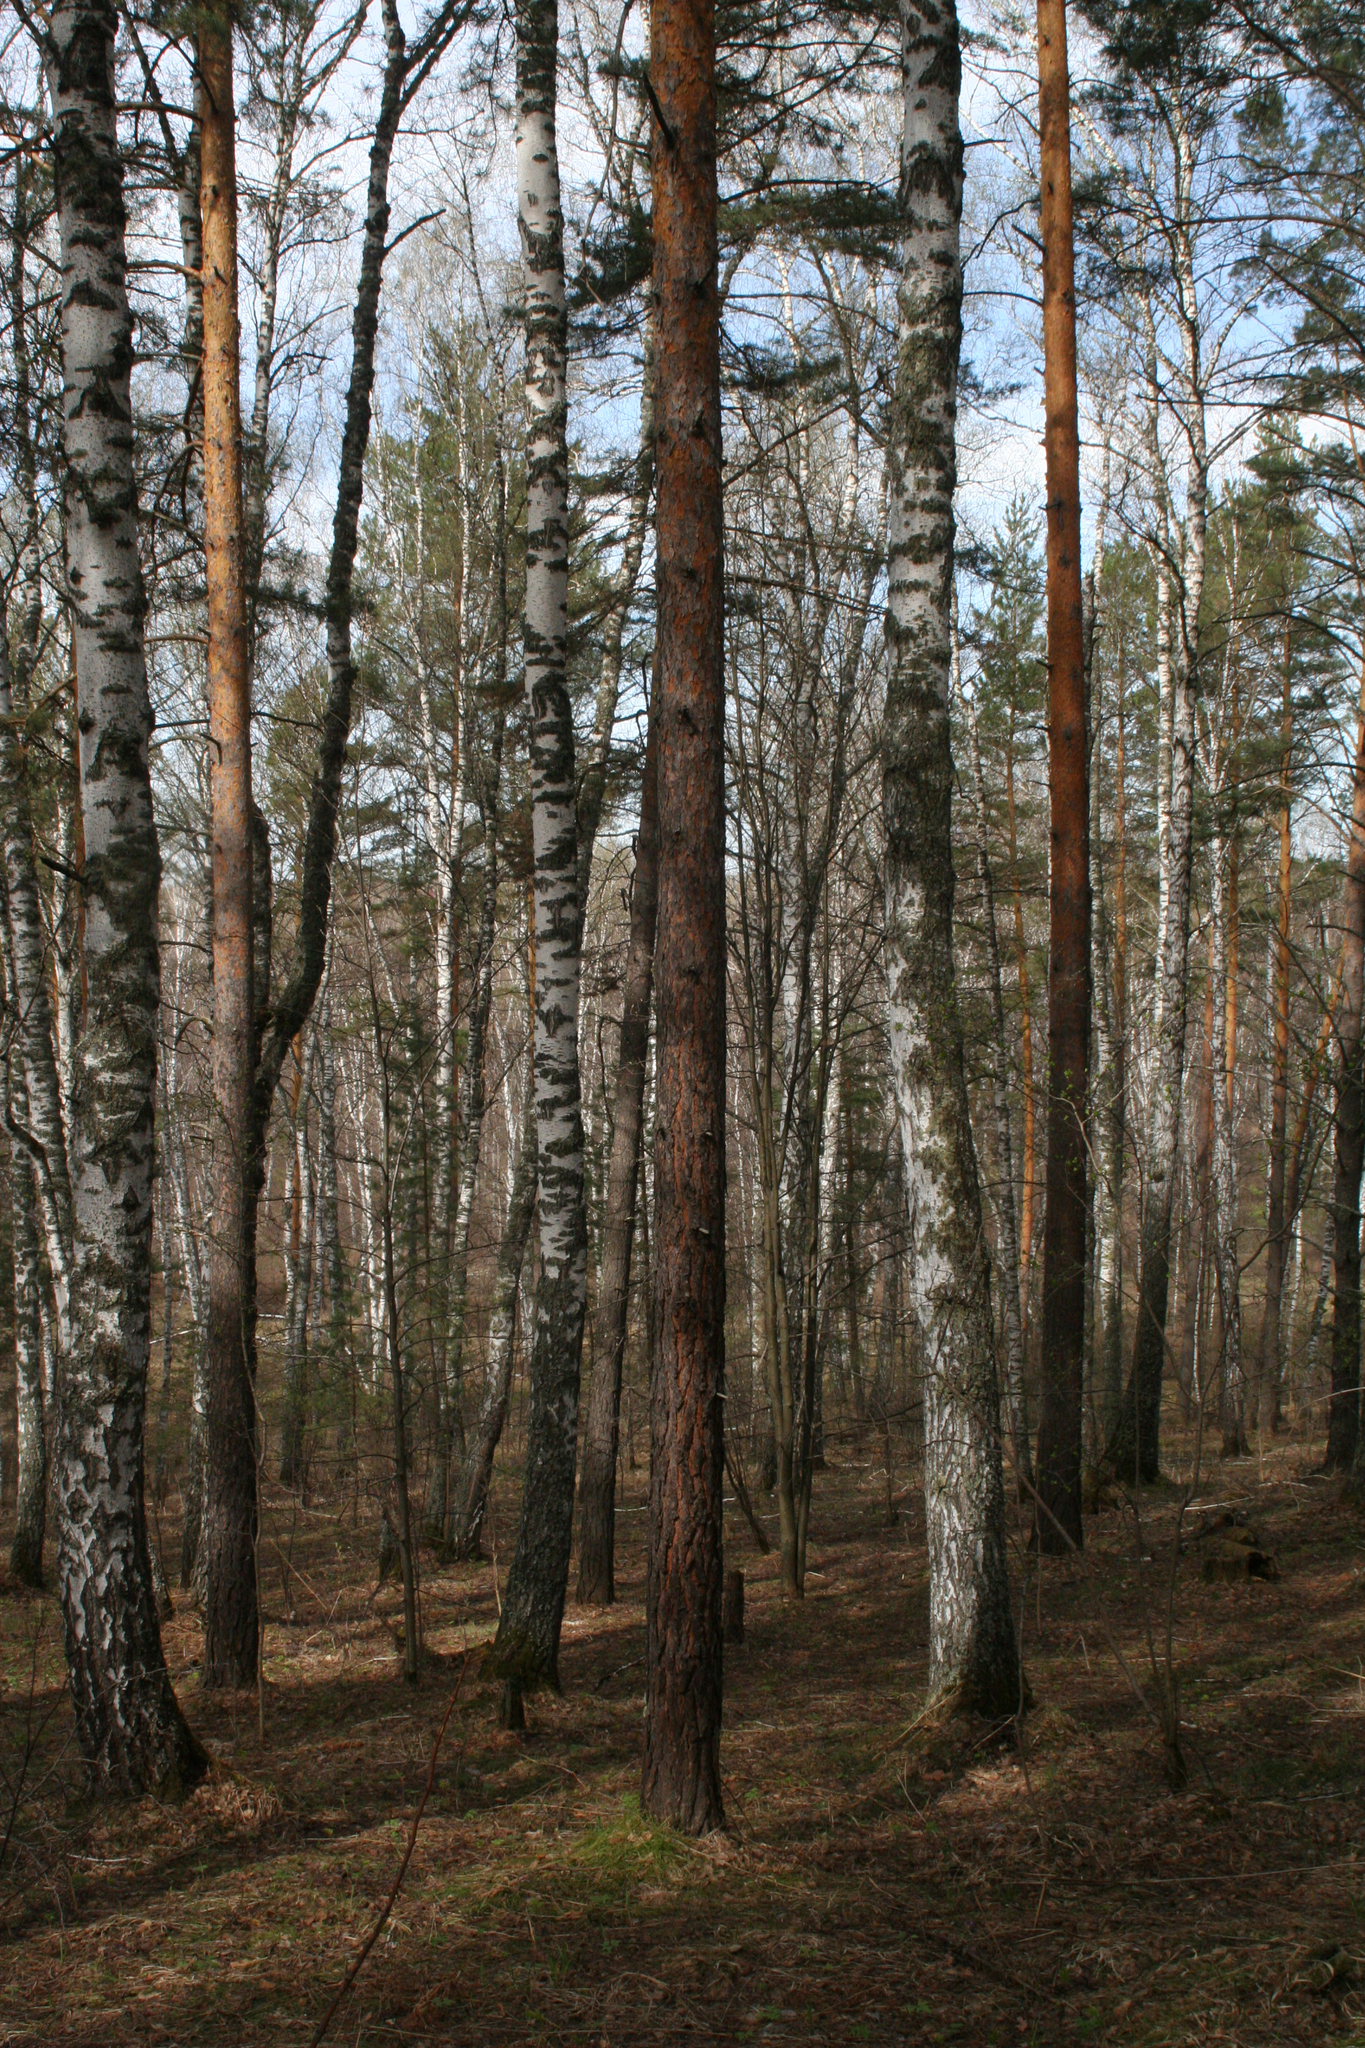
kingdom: Plantae
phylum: Tracheophyta
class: Pinopsida
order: Pinales
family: Pinaceae
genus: Pinus
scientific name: Pinus sylvestris
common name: Scots pine
